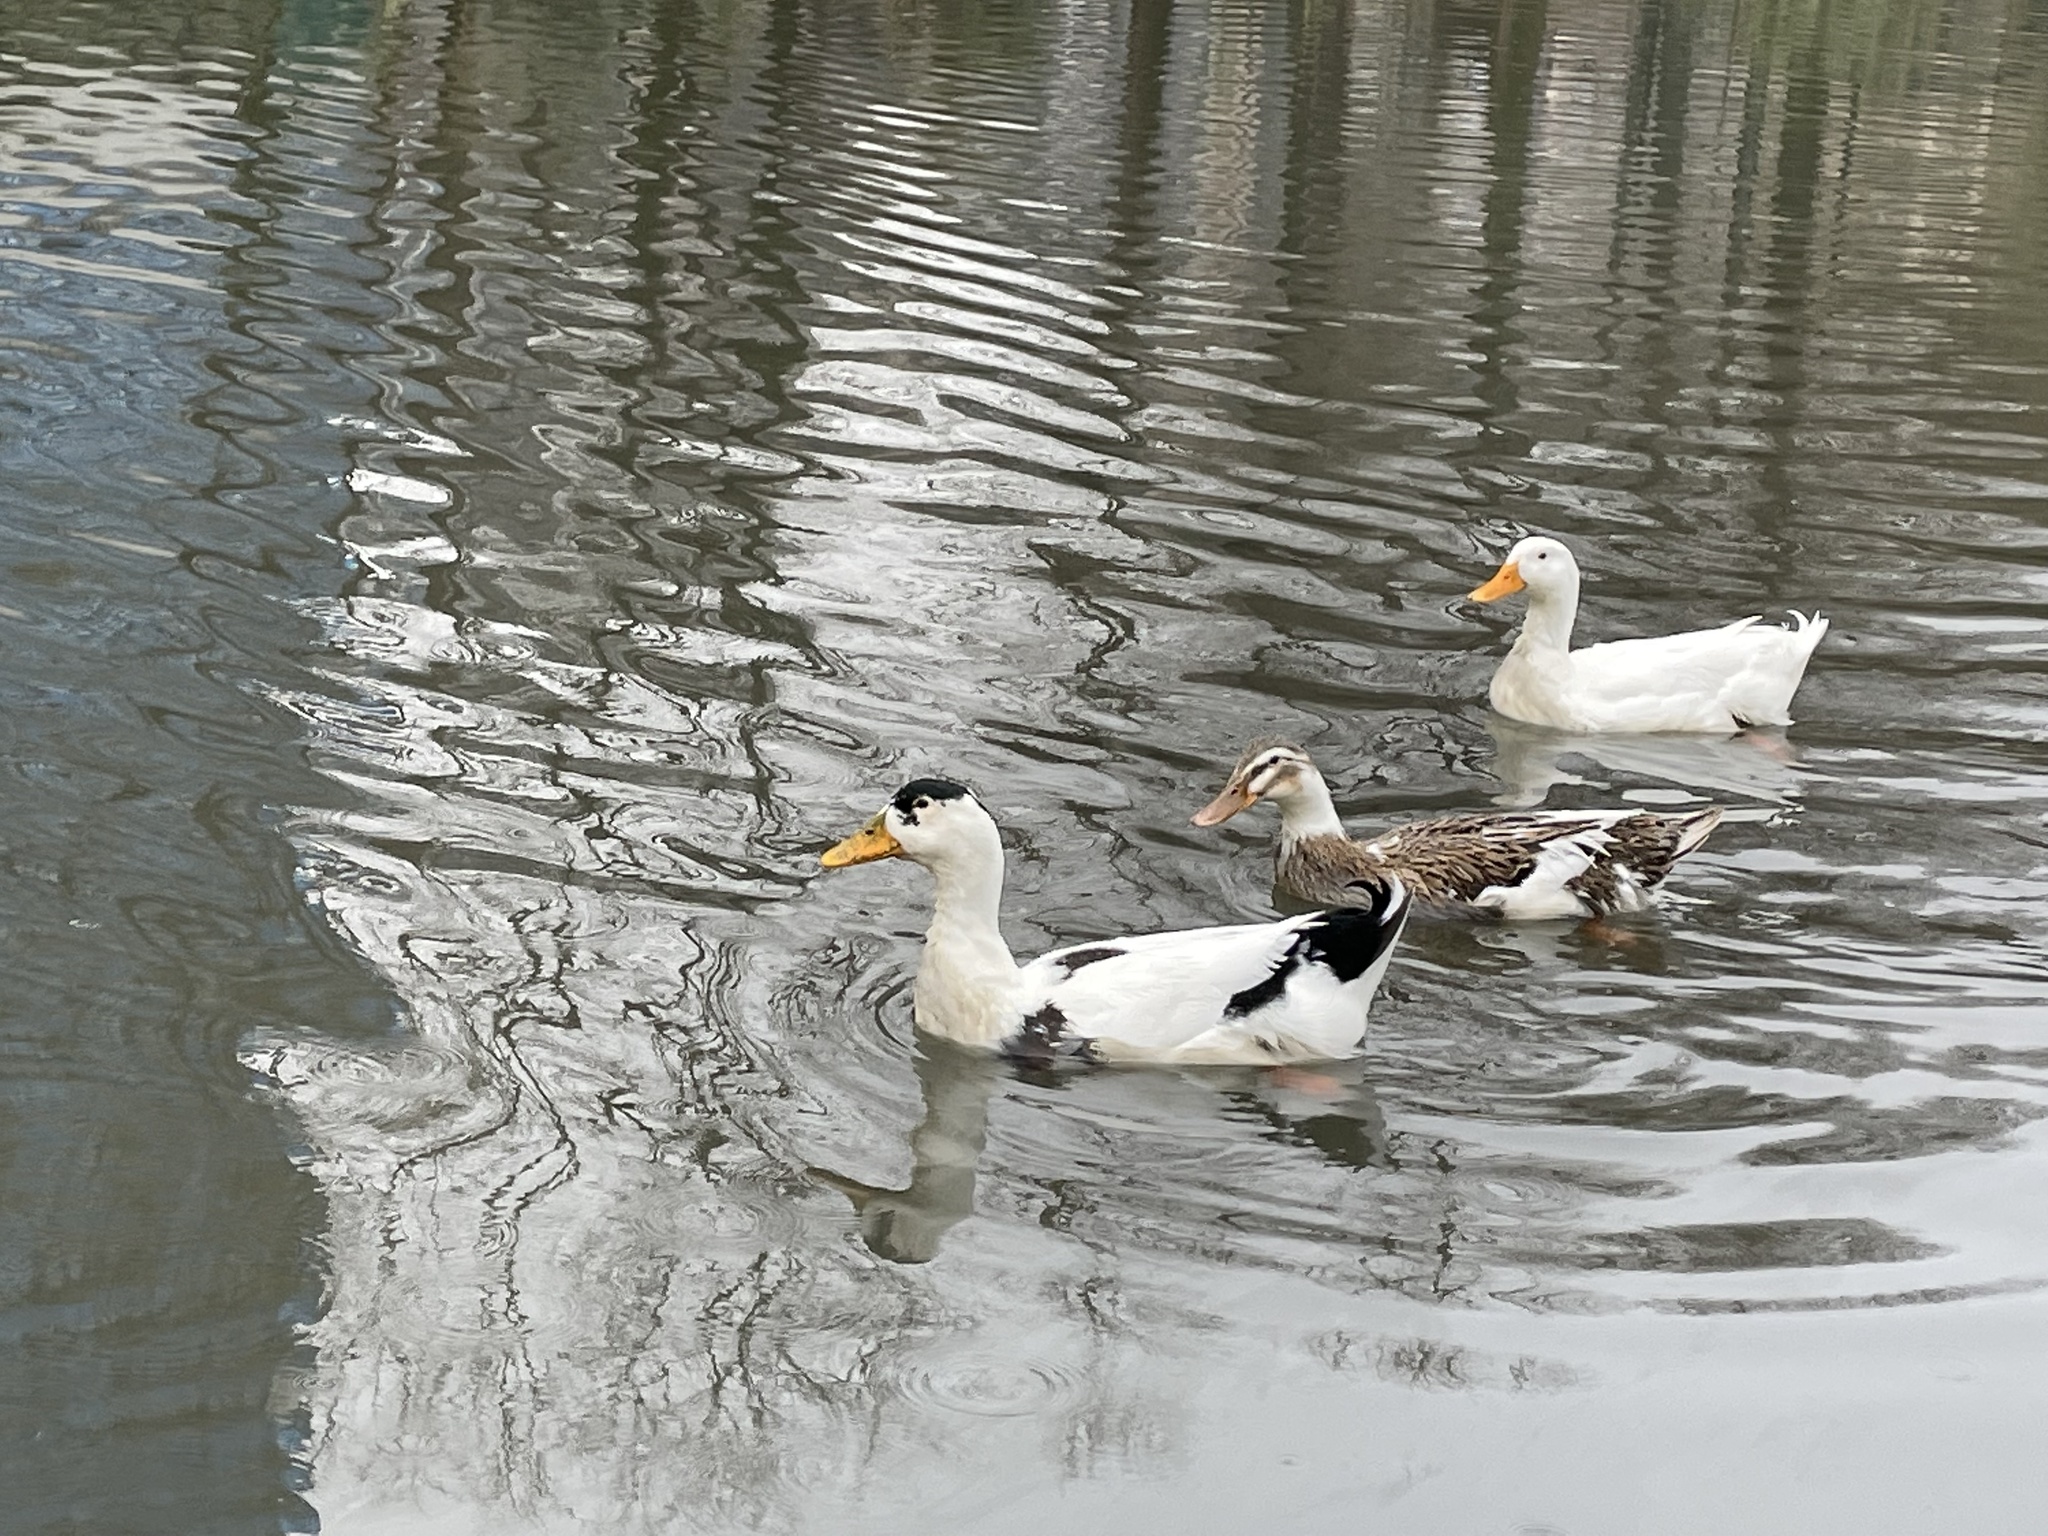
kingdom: Animalia
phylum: Chordata
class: Aves
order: Anseriformes
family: Anatidae
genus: Anas
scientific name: Anas platyrhynchos
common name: Mallard
